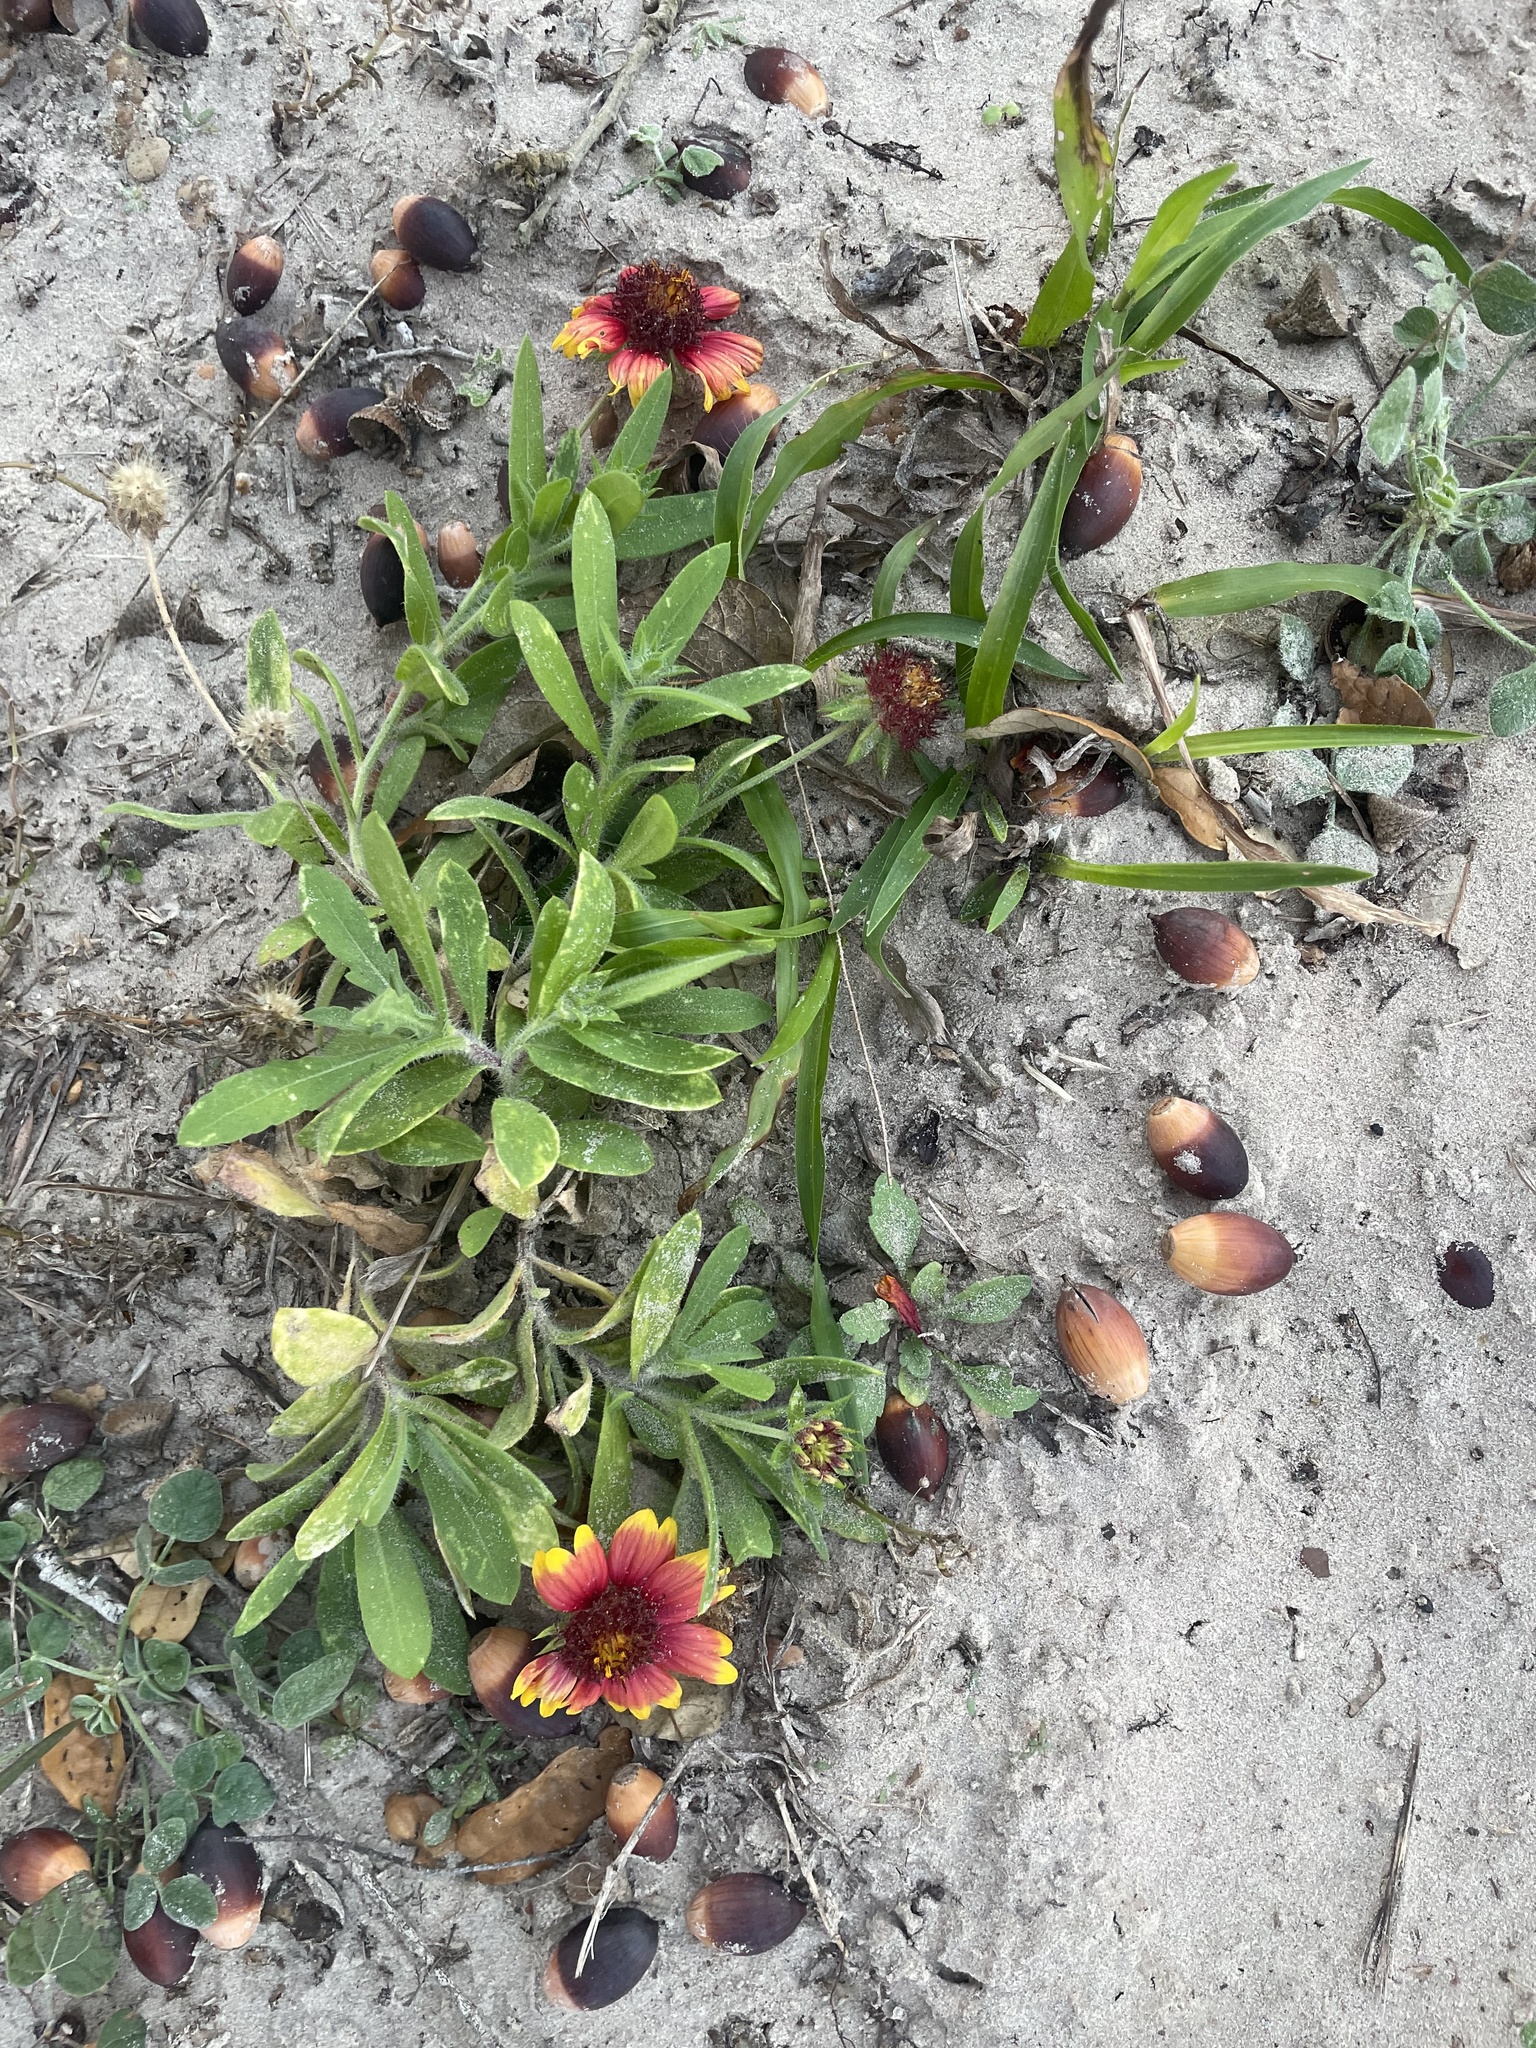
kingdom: Plantae
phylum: Tracheophyta
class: Magnoliopsida
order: Asterales
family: Asteraceae
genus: Gaillardia
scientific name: Gaillardia pulchella
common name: Firewheel
